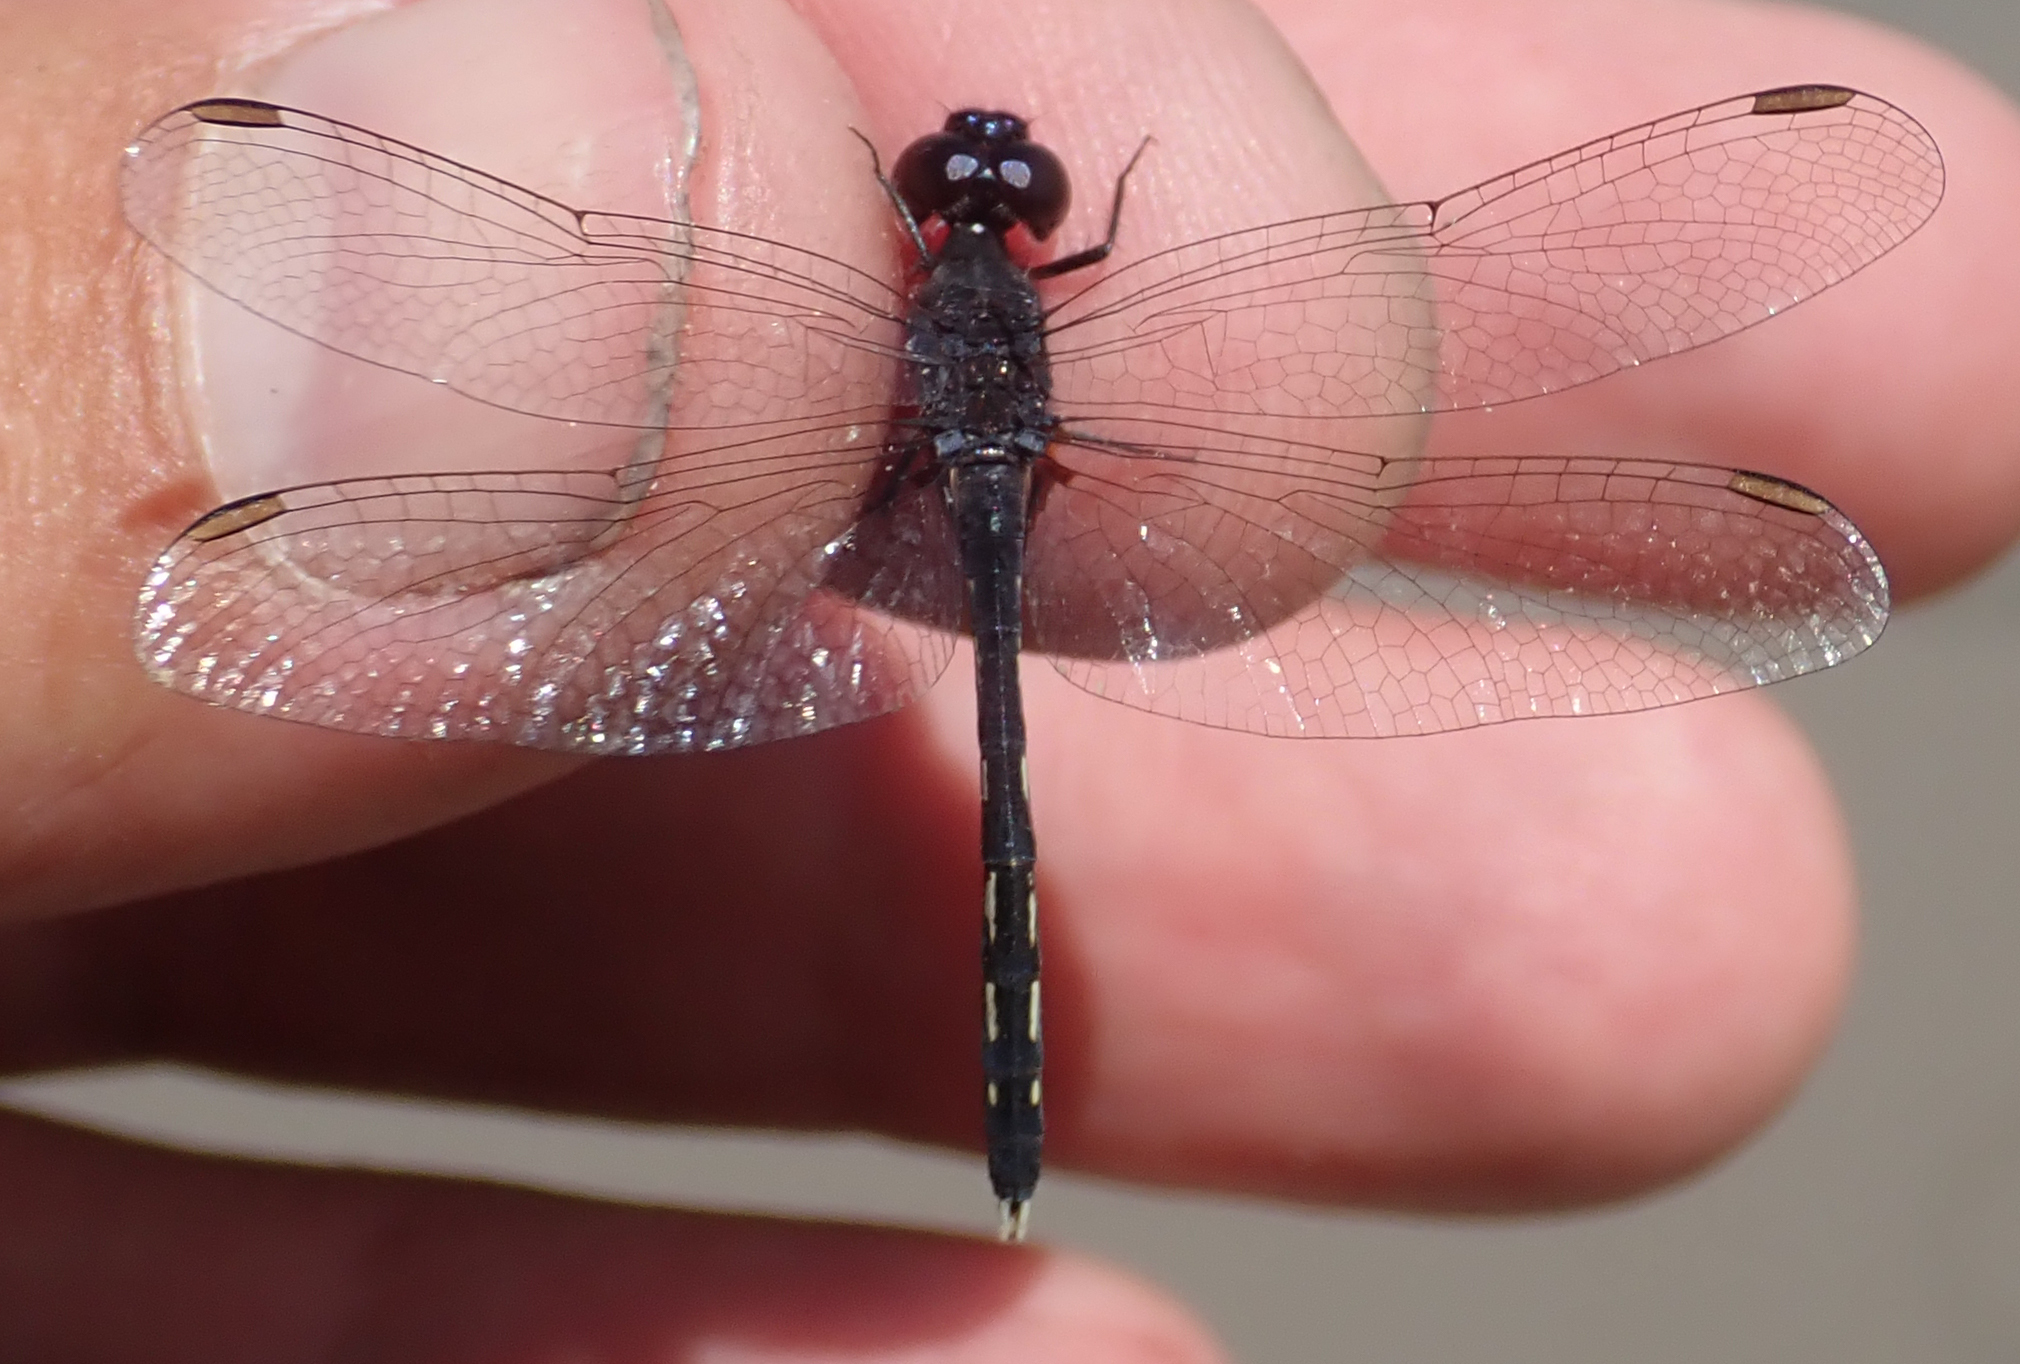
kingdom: Animalia
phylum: Arthropoda
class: Insecta
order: Odonata
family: Libellulidae
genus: Diplacodes
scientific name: Diplacodes lefebvrii
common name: Black percher
